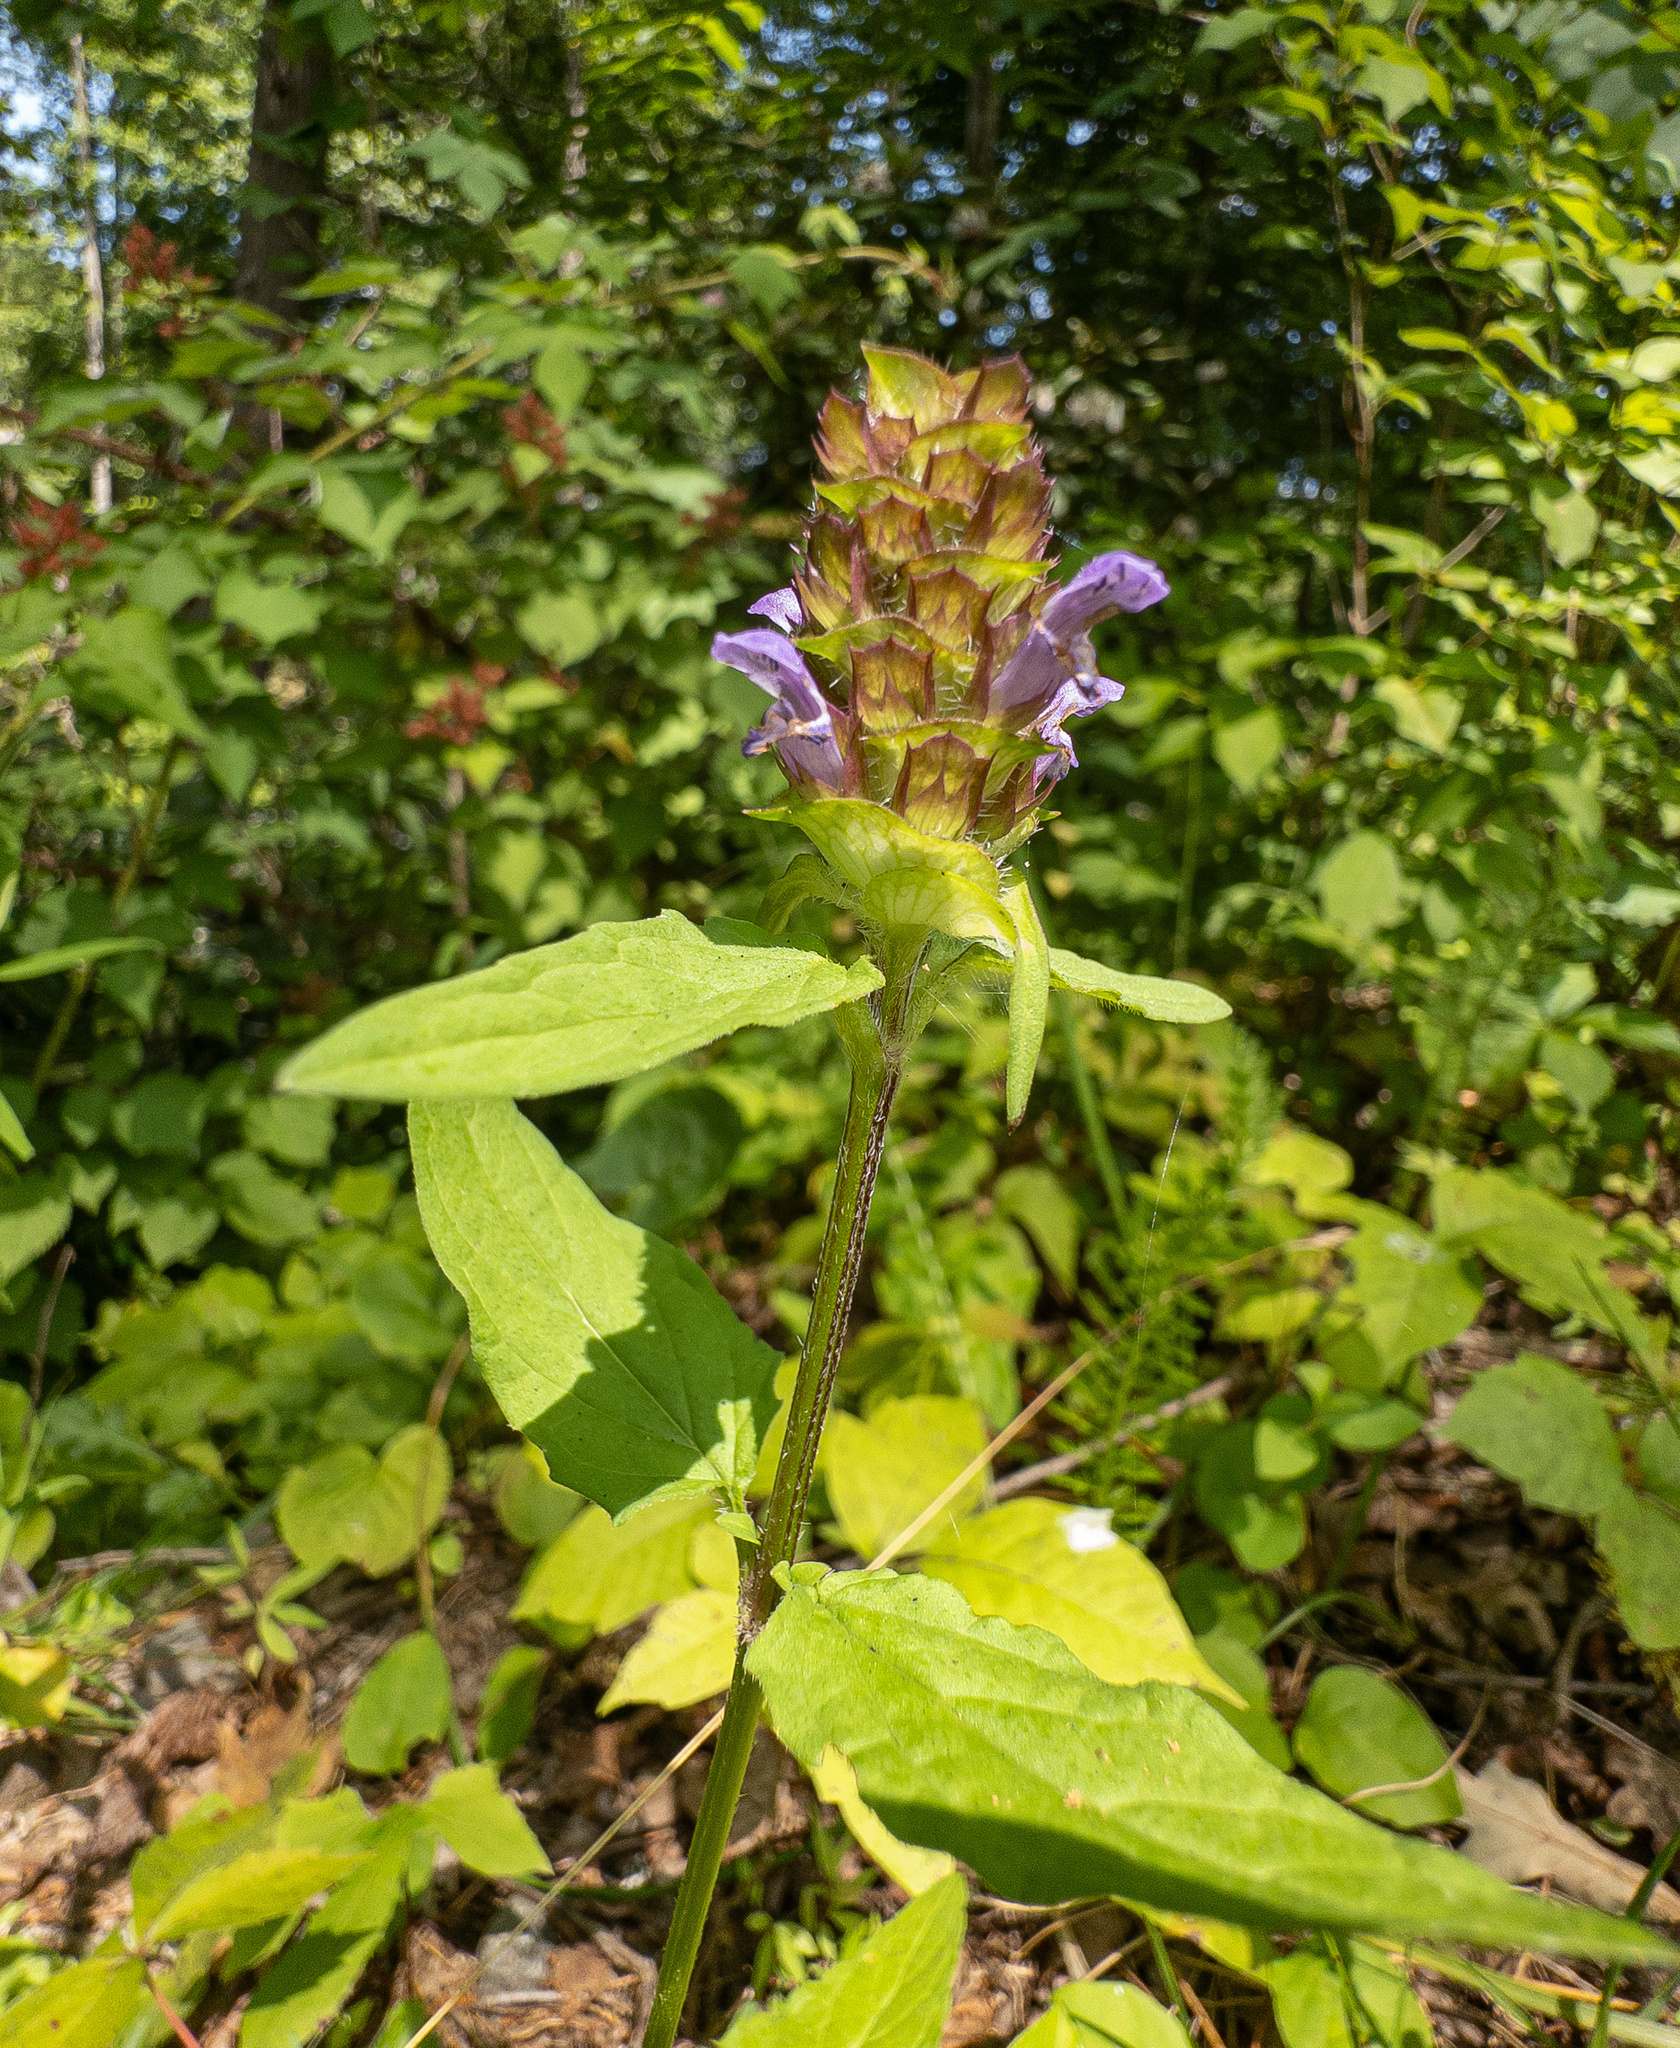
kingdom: Plantae
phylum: Tracheophyta
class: Magnoliopsida
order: Lamiales
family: Lamiaceae
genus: Prunella
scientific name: Prunella vulgaris
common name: Heal-all
